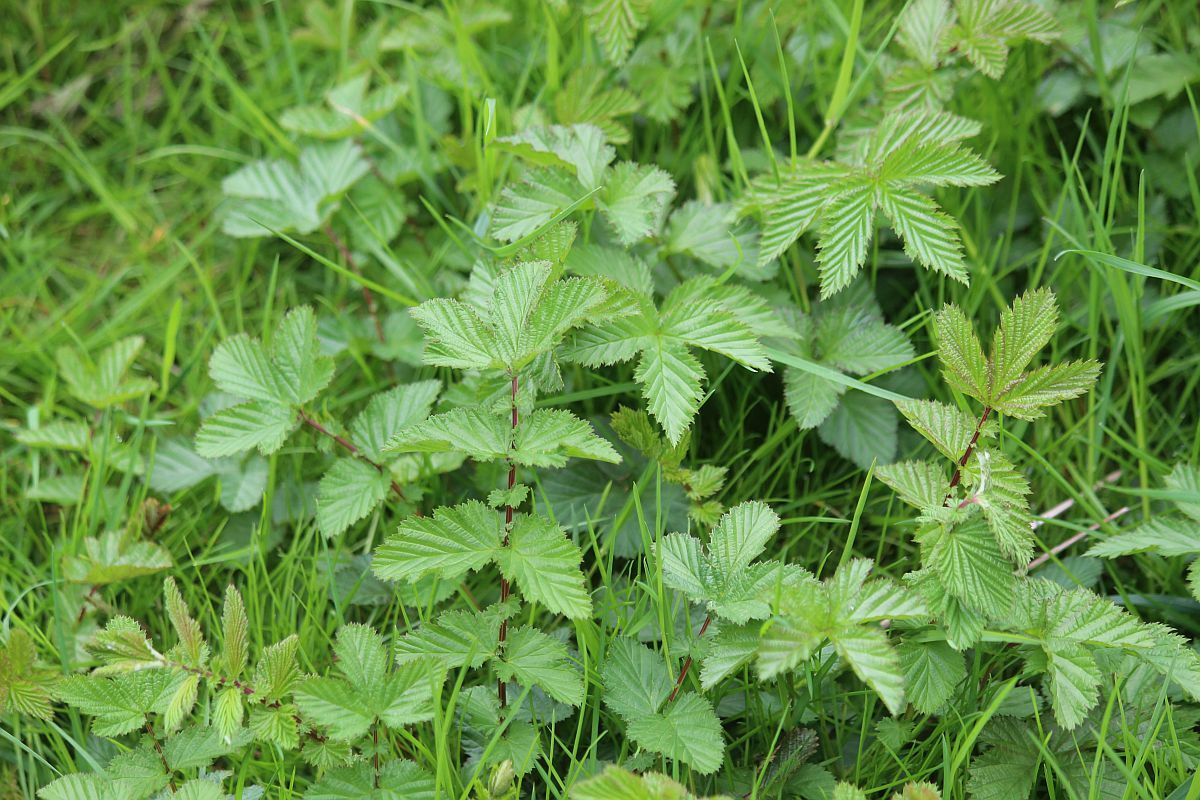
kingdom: Plantae
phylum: Tracheophyta
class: Magnoliopsida
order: Rosales
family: Rosaceae
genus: Filipendula
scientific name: Filipendula ulmaria
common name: Meadowsweet
